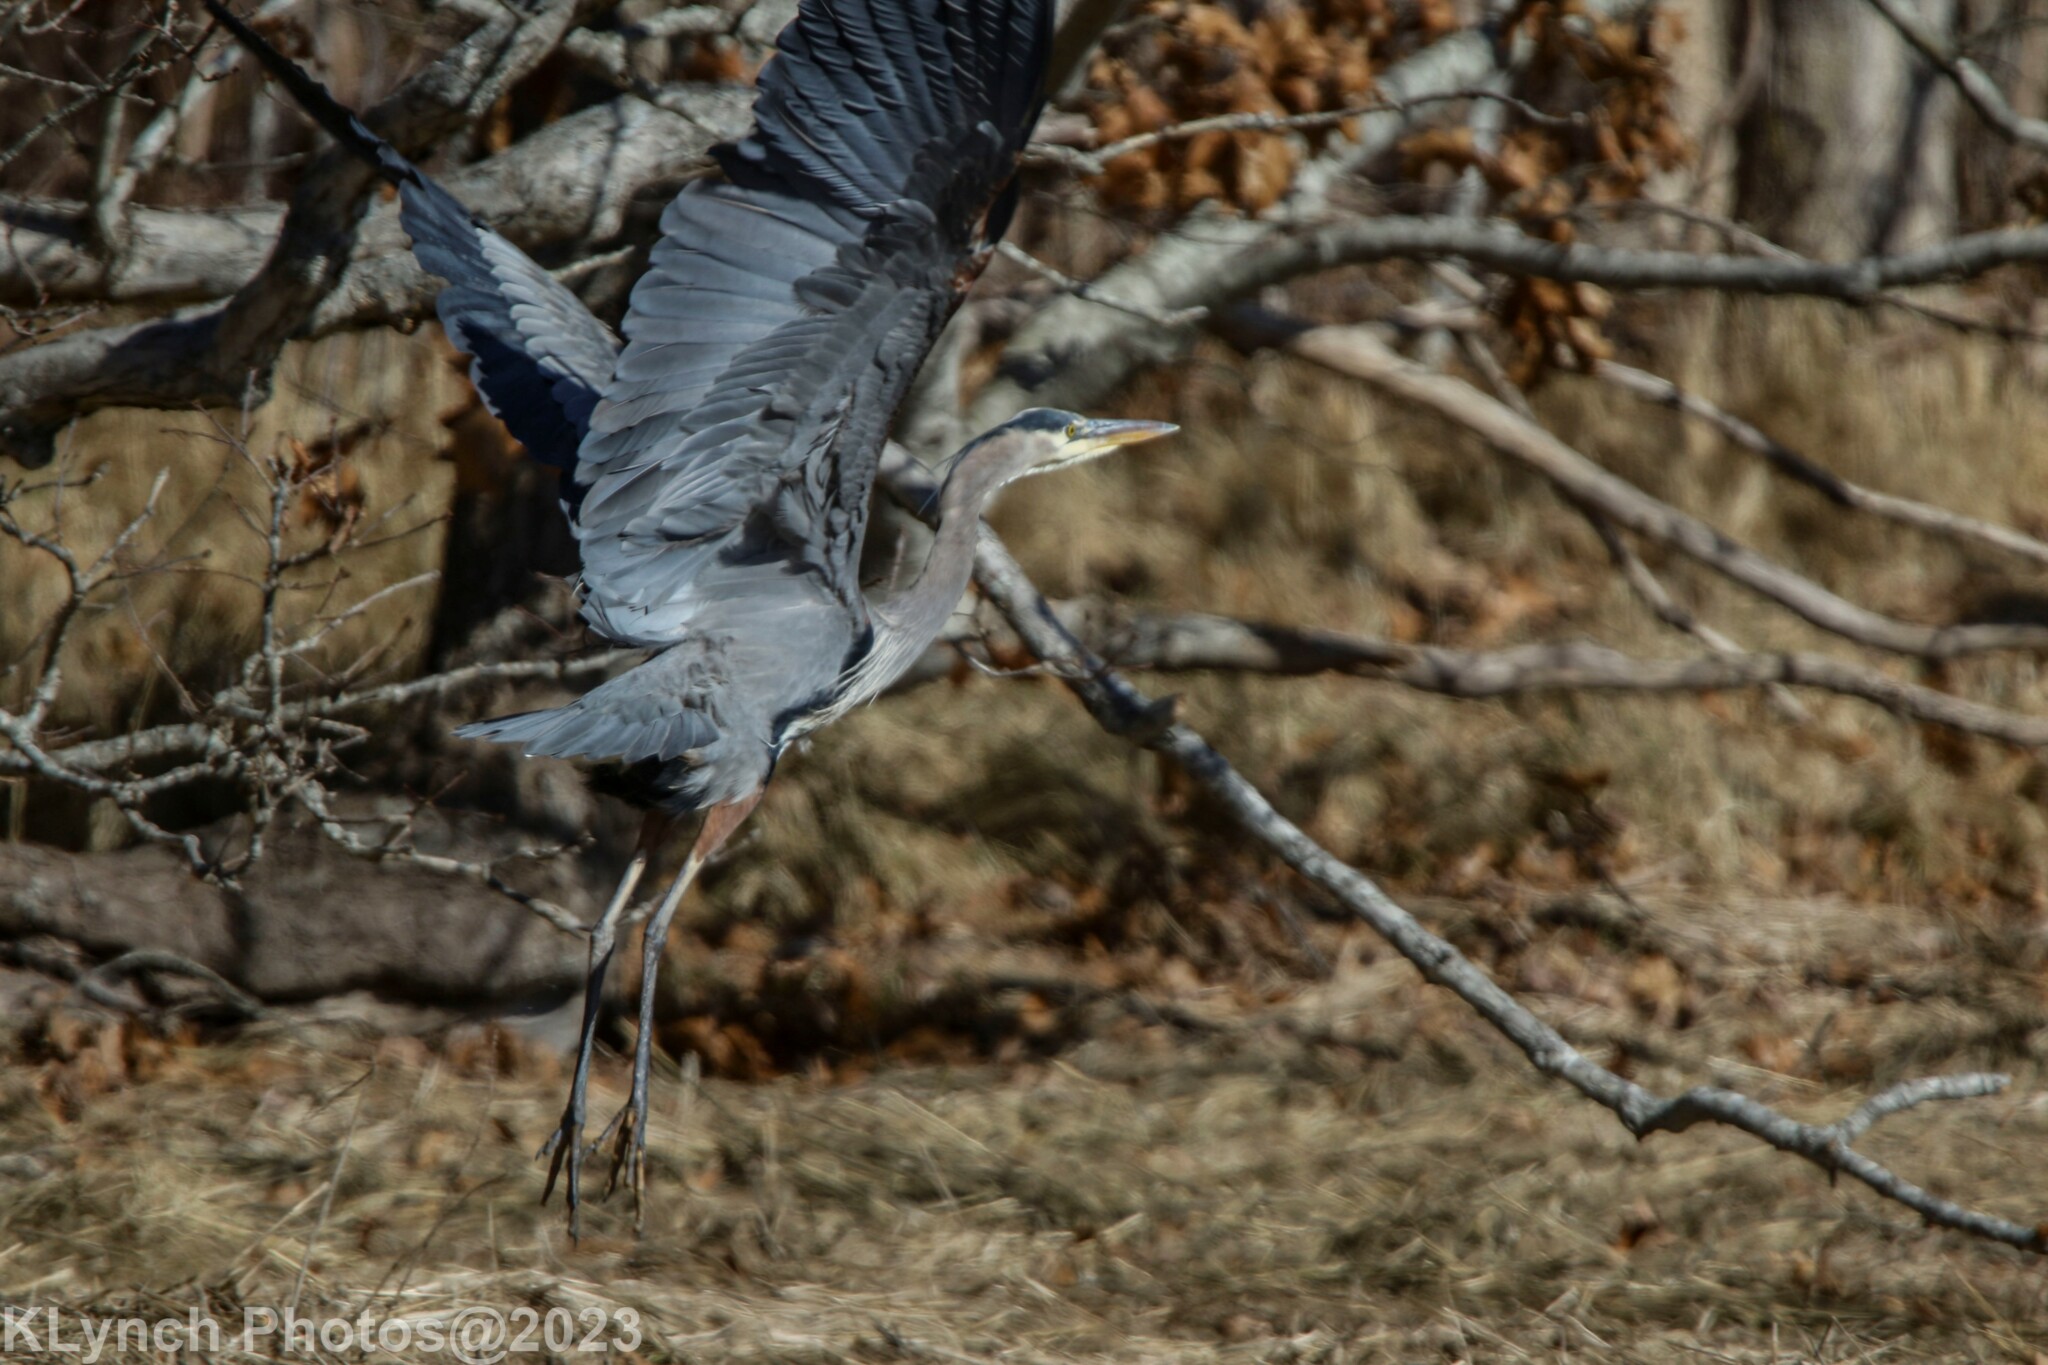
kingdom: Animalia
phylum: Chordata
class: Aves
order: Pelecaniformes
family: Ardeidae
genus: Ardea
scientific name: Ardea herodias
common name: Great blue heron
